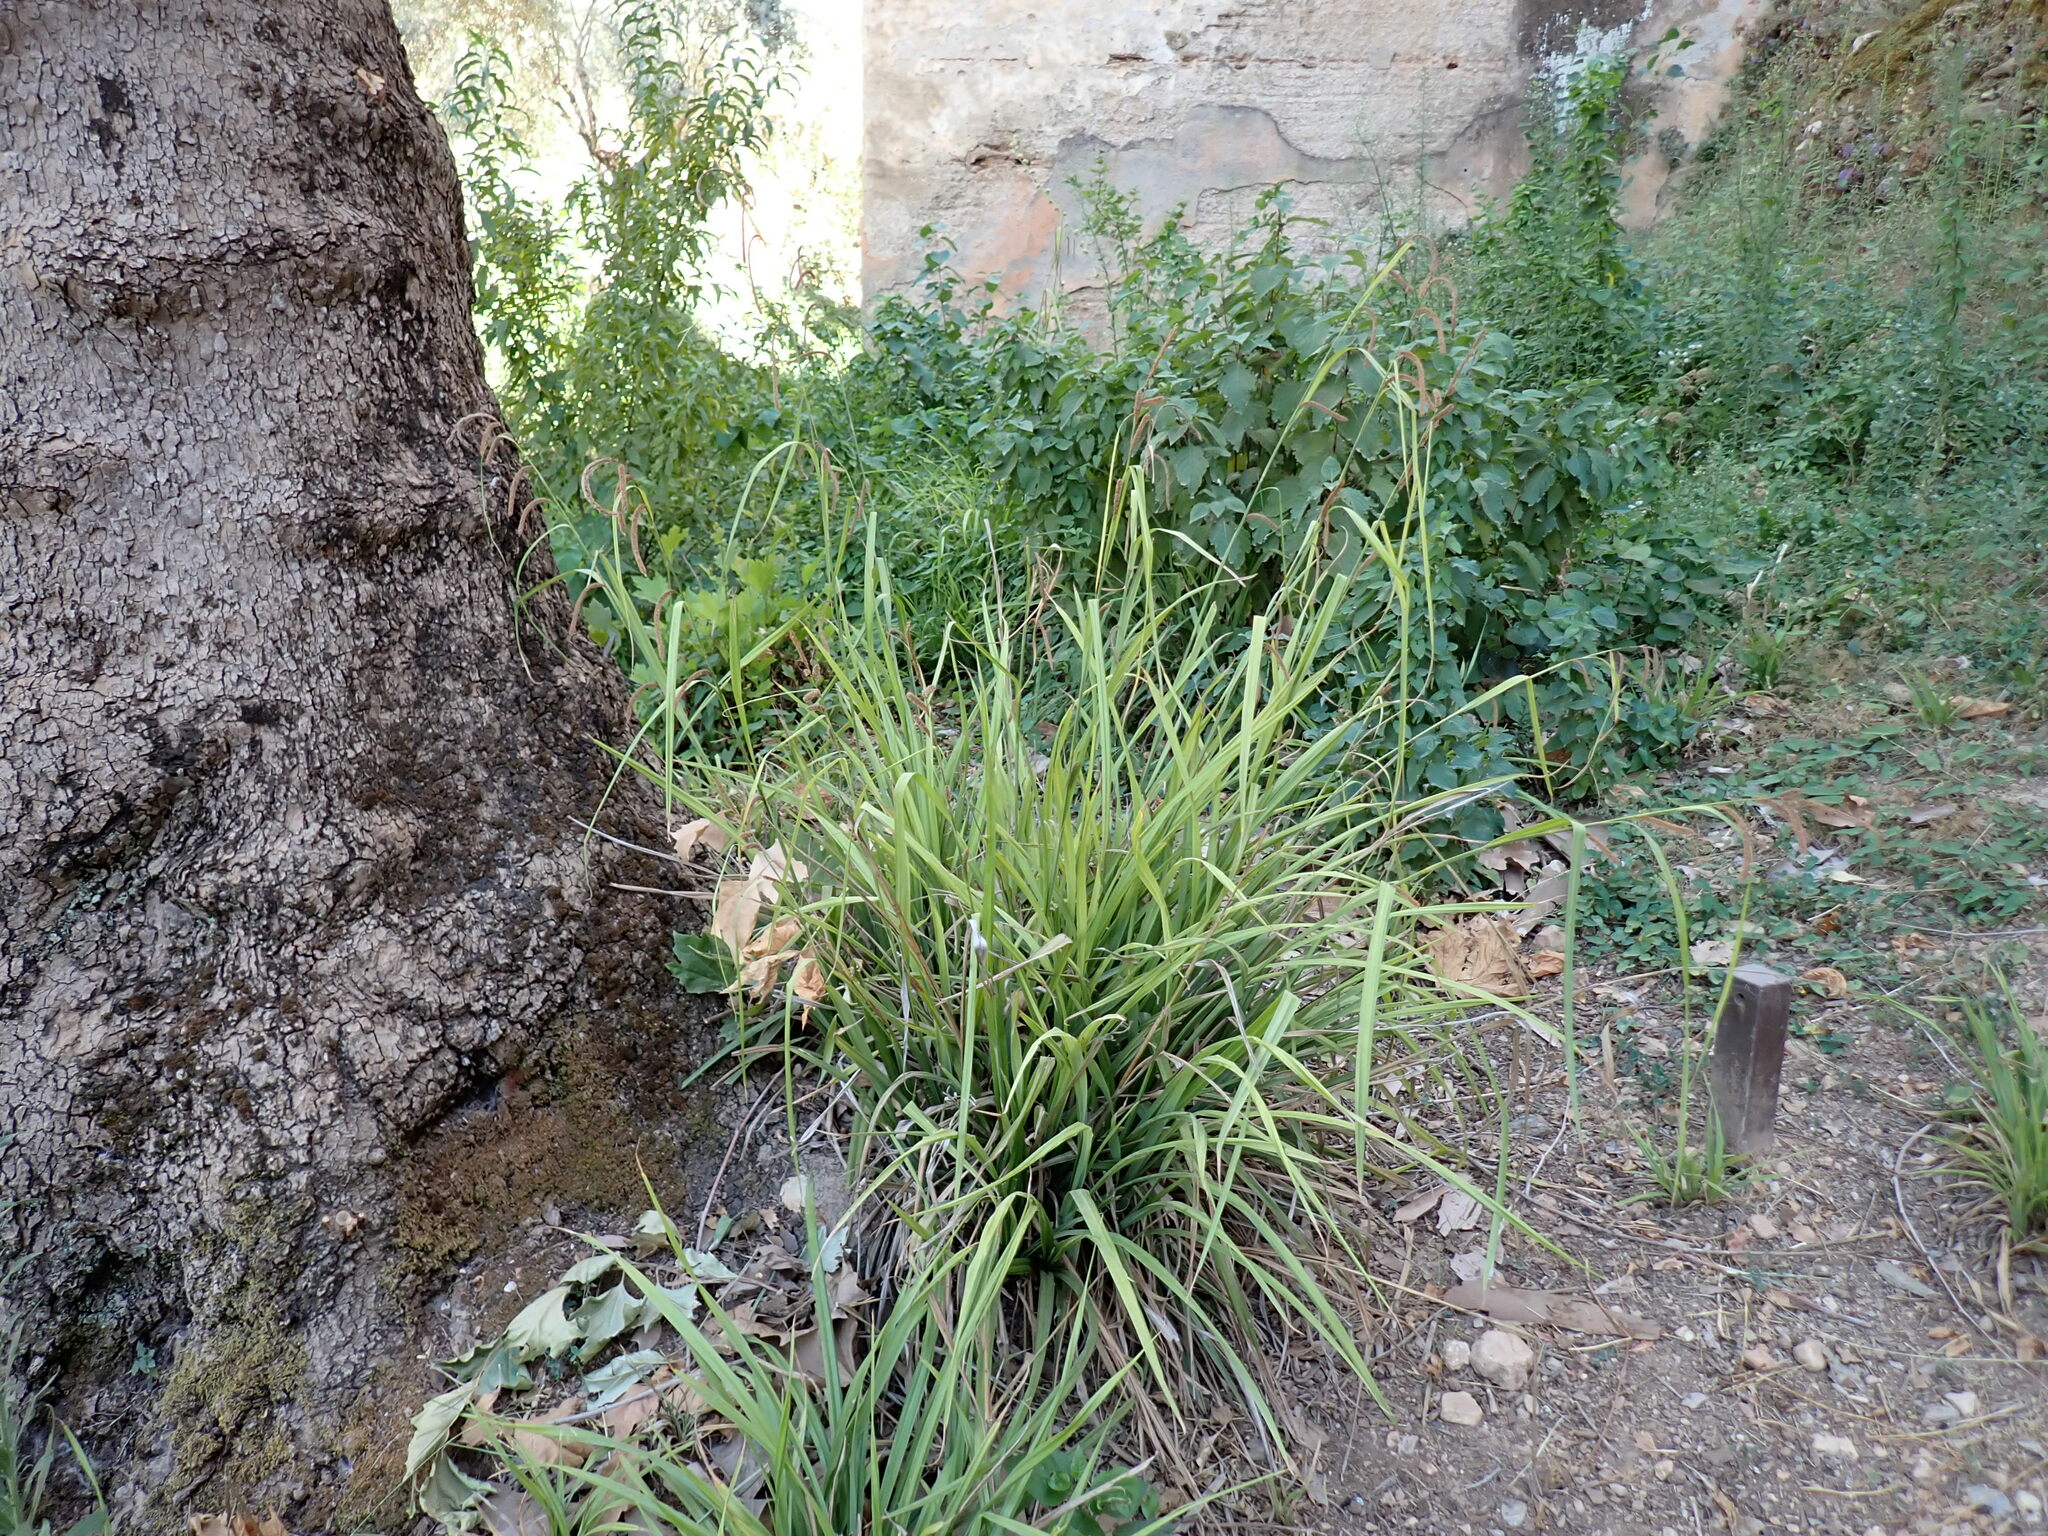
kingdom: Plantae
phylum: Tracheophyta
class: Liliopsida
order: Poales
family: Cyperaceae
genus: Carex
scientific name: Carex pendula
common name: Pendulous sedge
